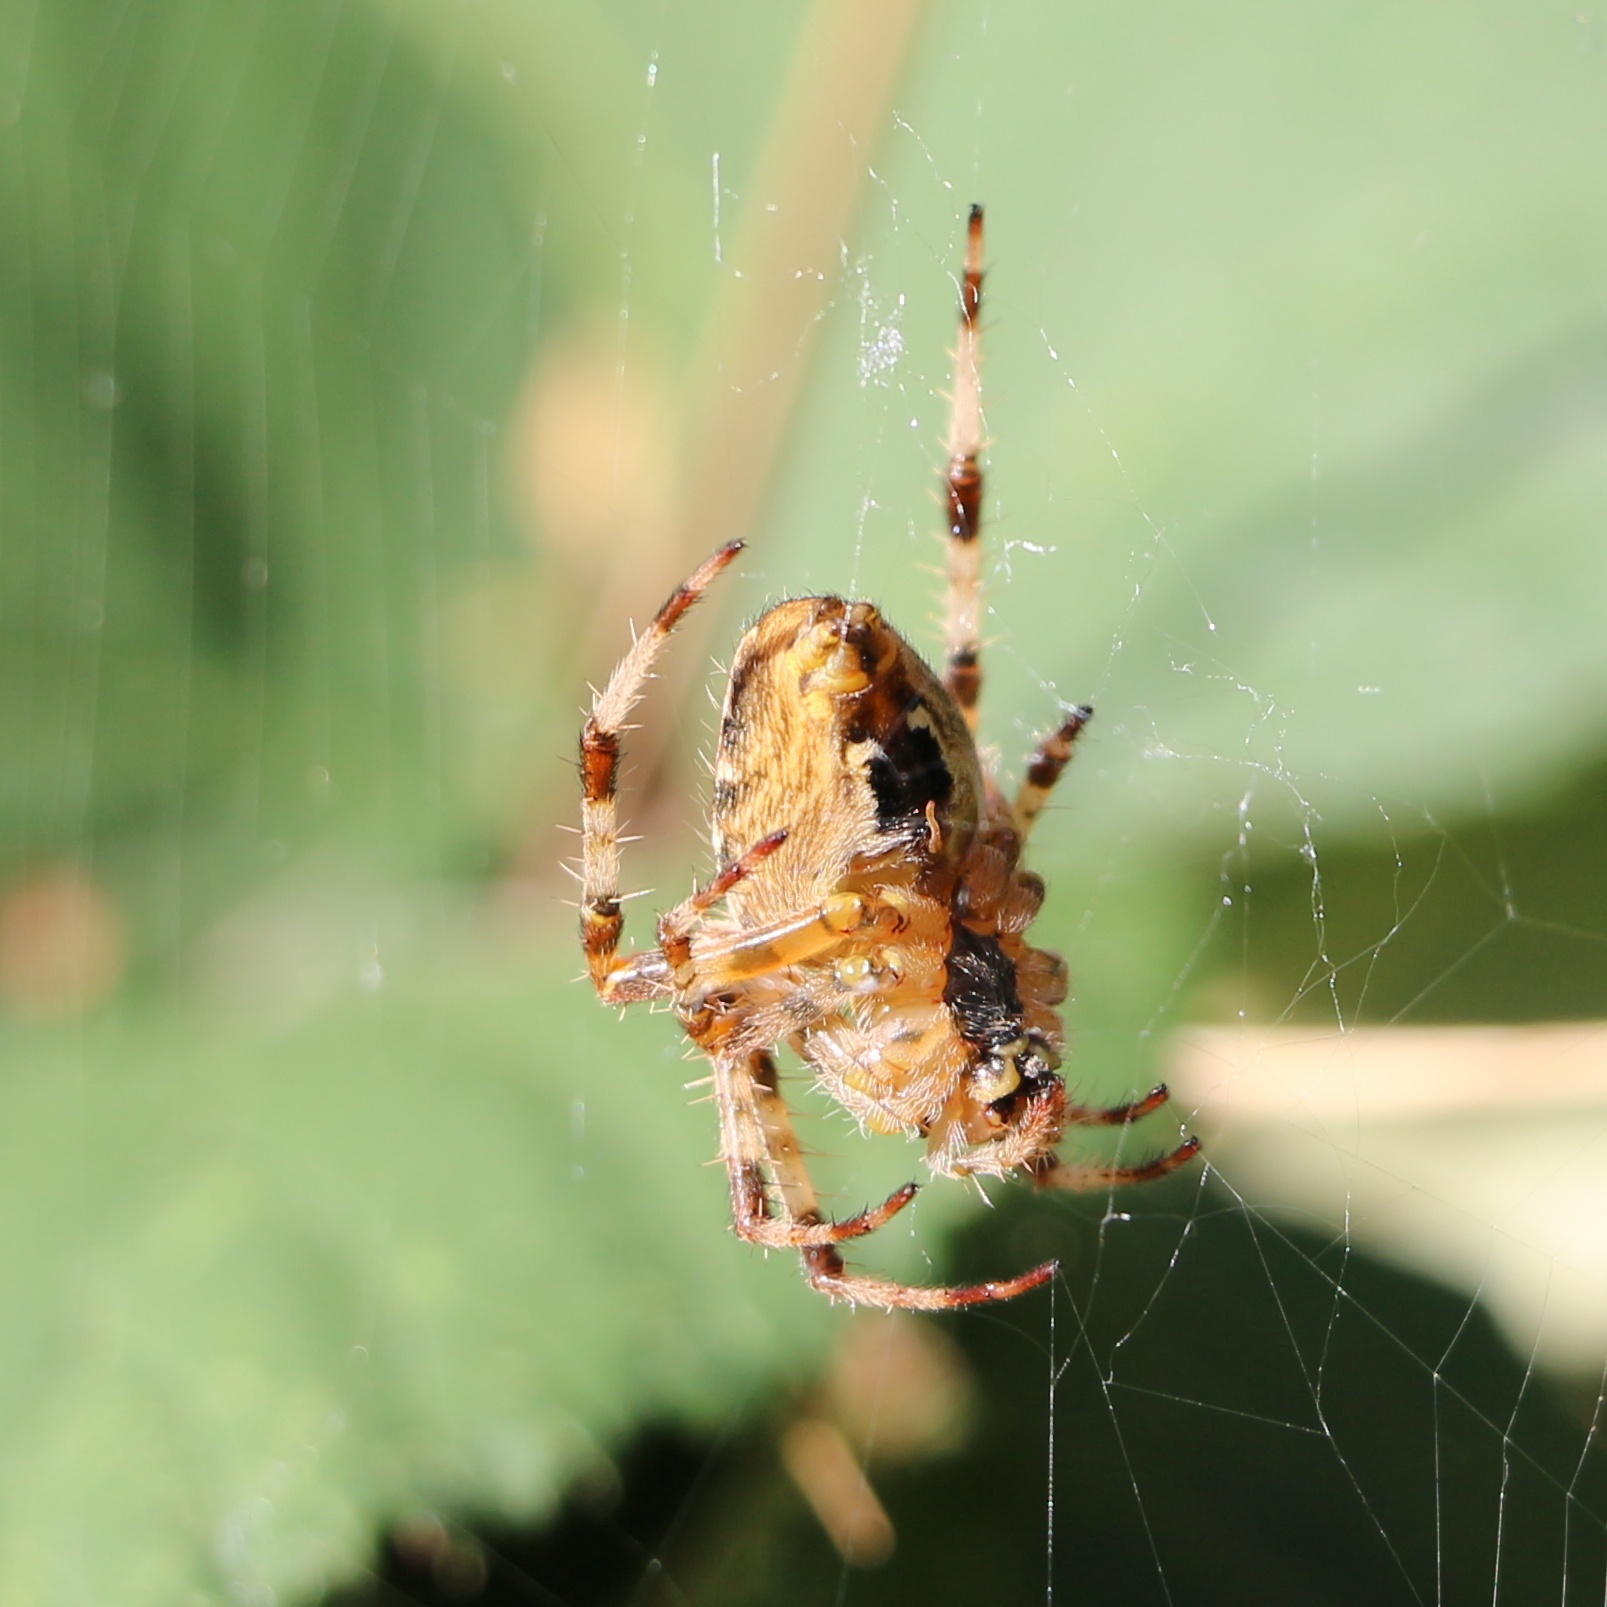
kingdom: Animalia
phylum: Arthropoda
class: Arachnida
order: Araneae
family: Araneidae
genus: Araneus
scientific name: Araneus diadematus
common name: Cross orbweaver
